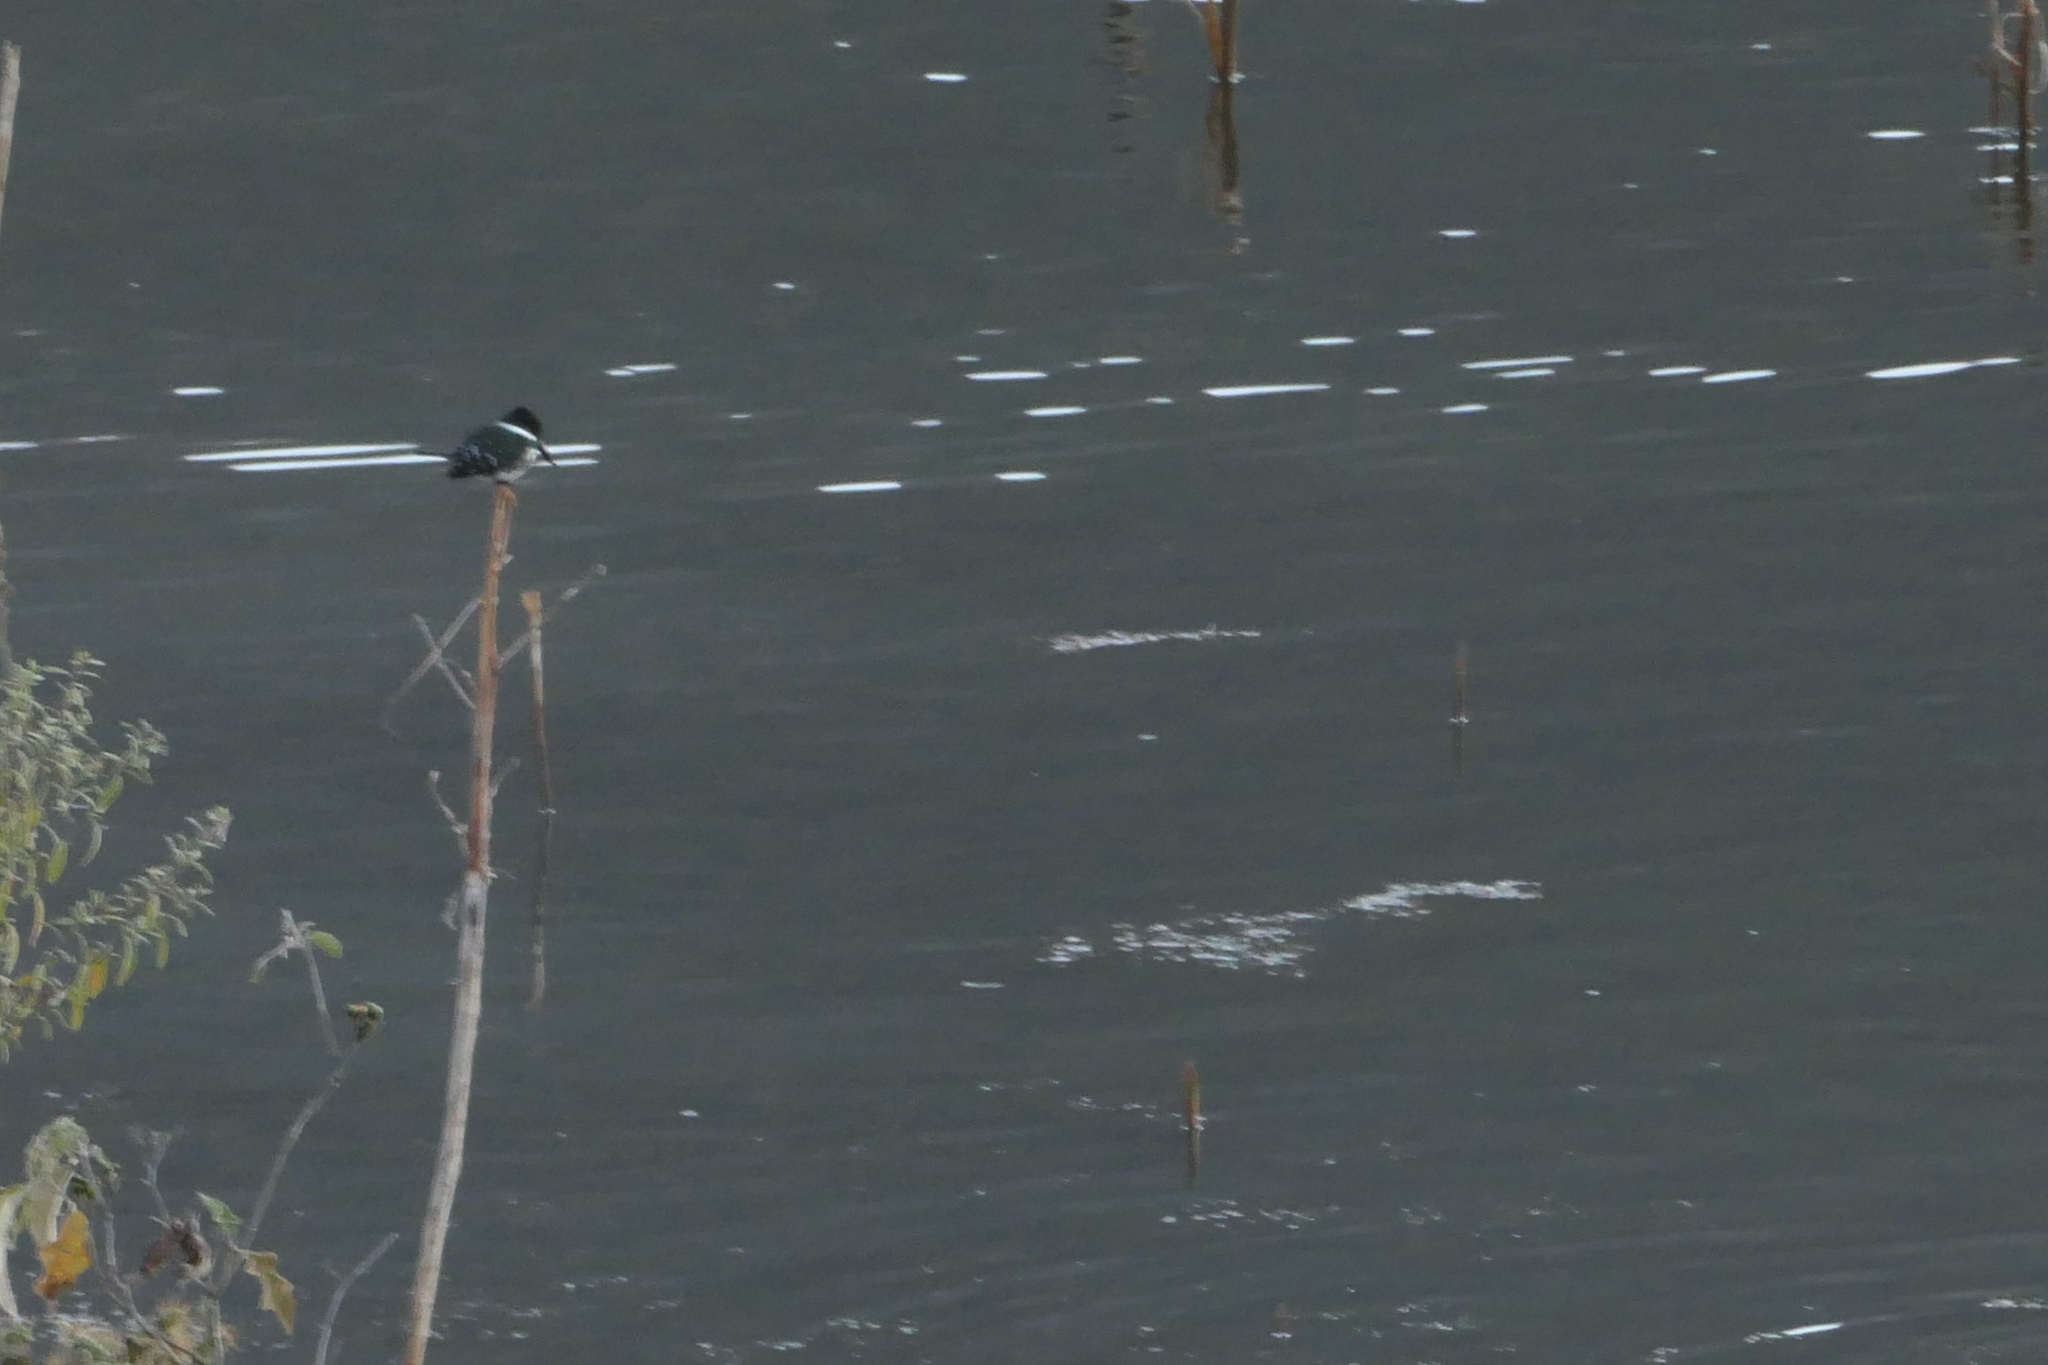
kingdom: Animalia
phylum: Chordata
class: Aves
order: Coraciiformes
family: Alcedinidae
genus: Chloroceryle
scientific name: Chloroceryle americana
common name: Green kingfisher
